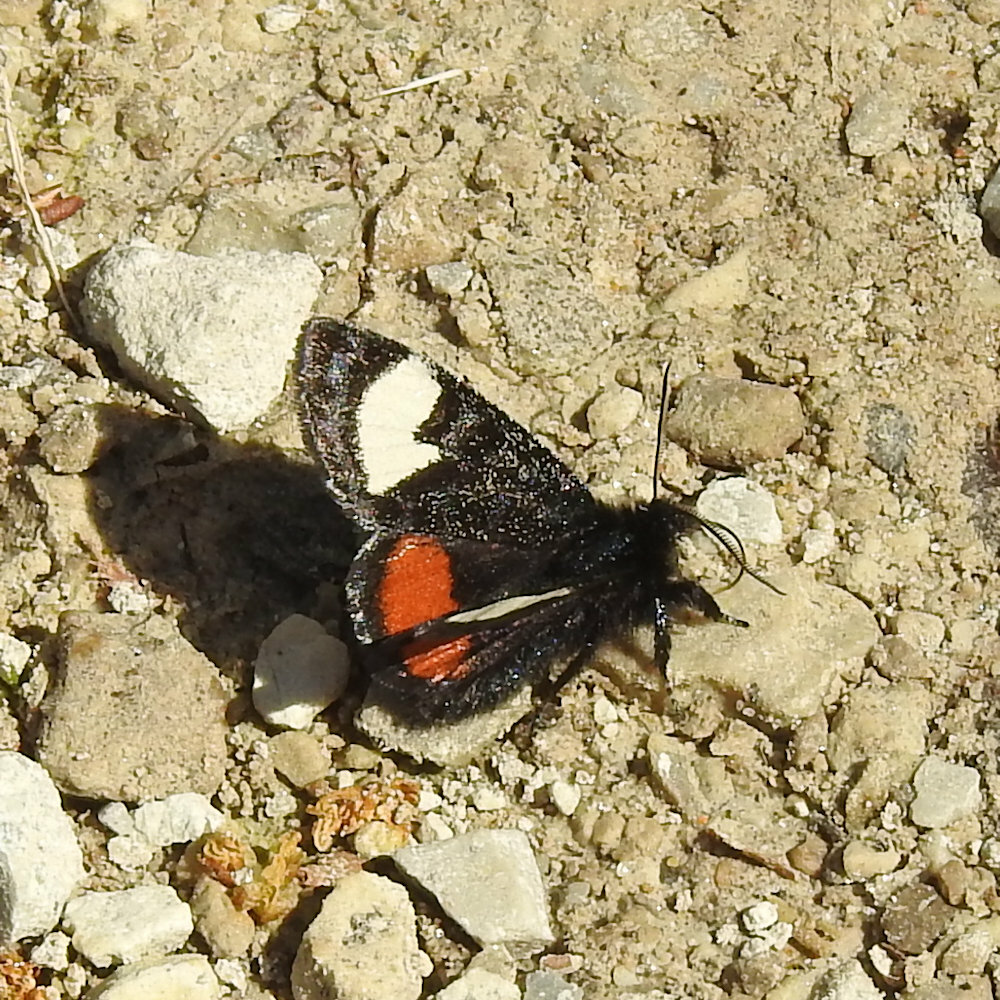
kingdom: Animalia
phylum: Arthropoda
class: Insecta
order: Lepidoptera
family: Noctuidae
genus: Psychomorpha
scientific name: Psychomorpha epimenis
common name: Grapevine epimenis moth
